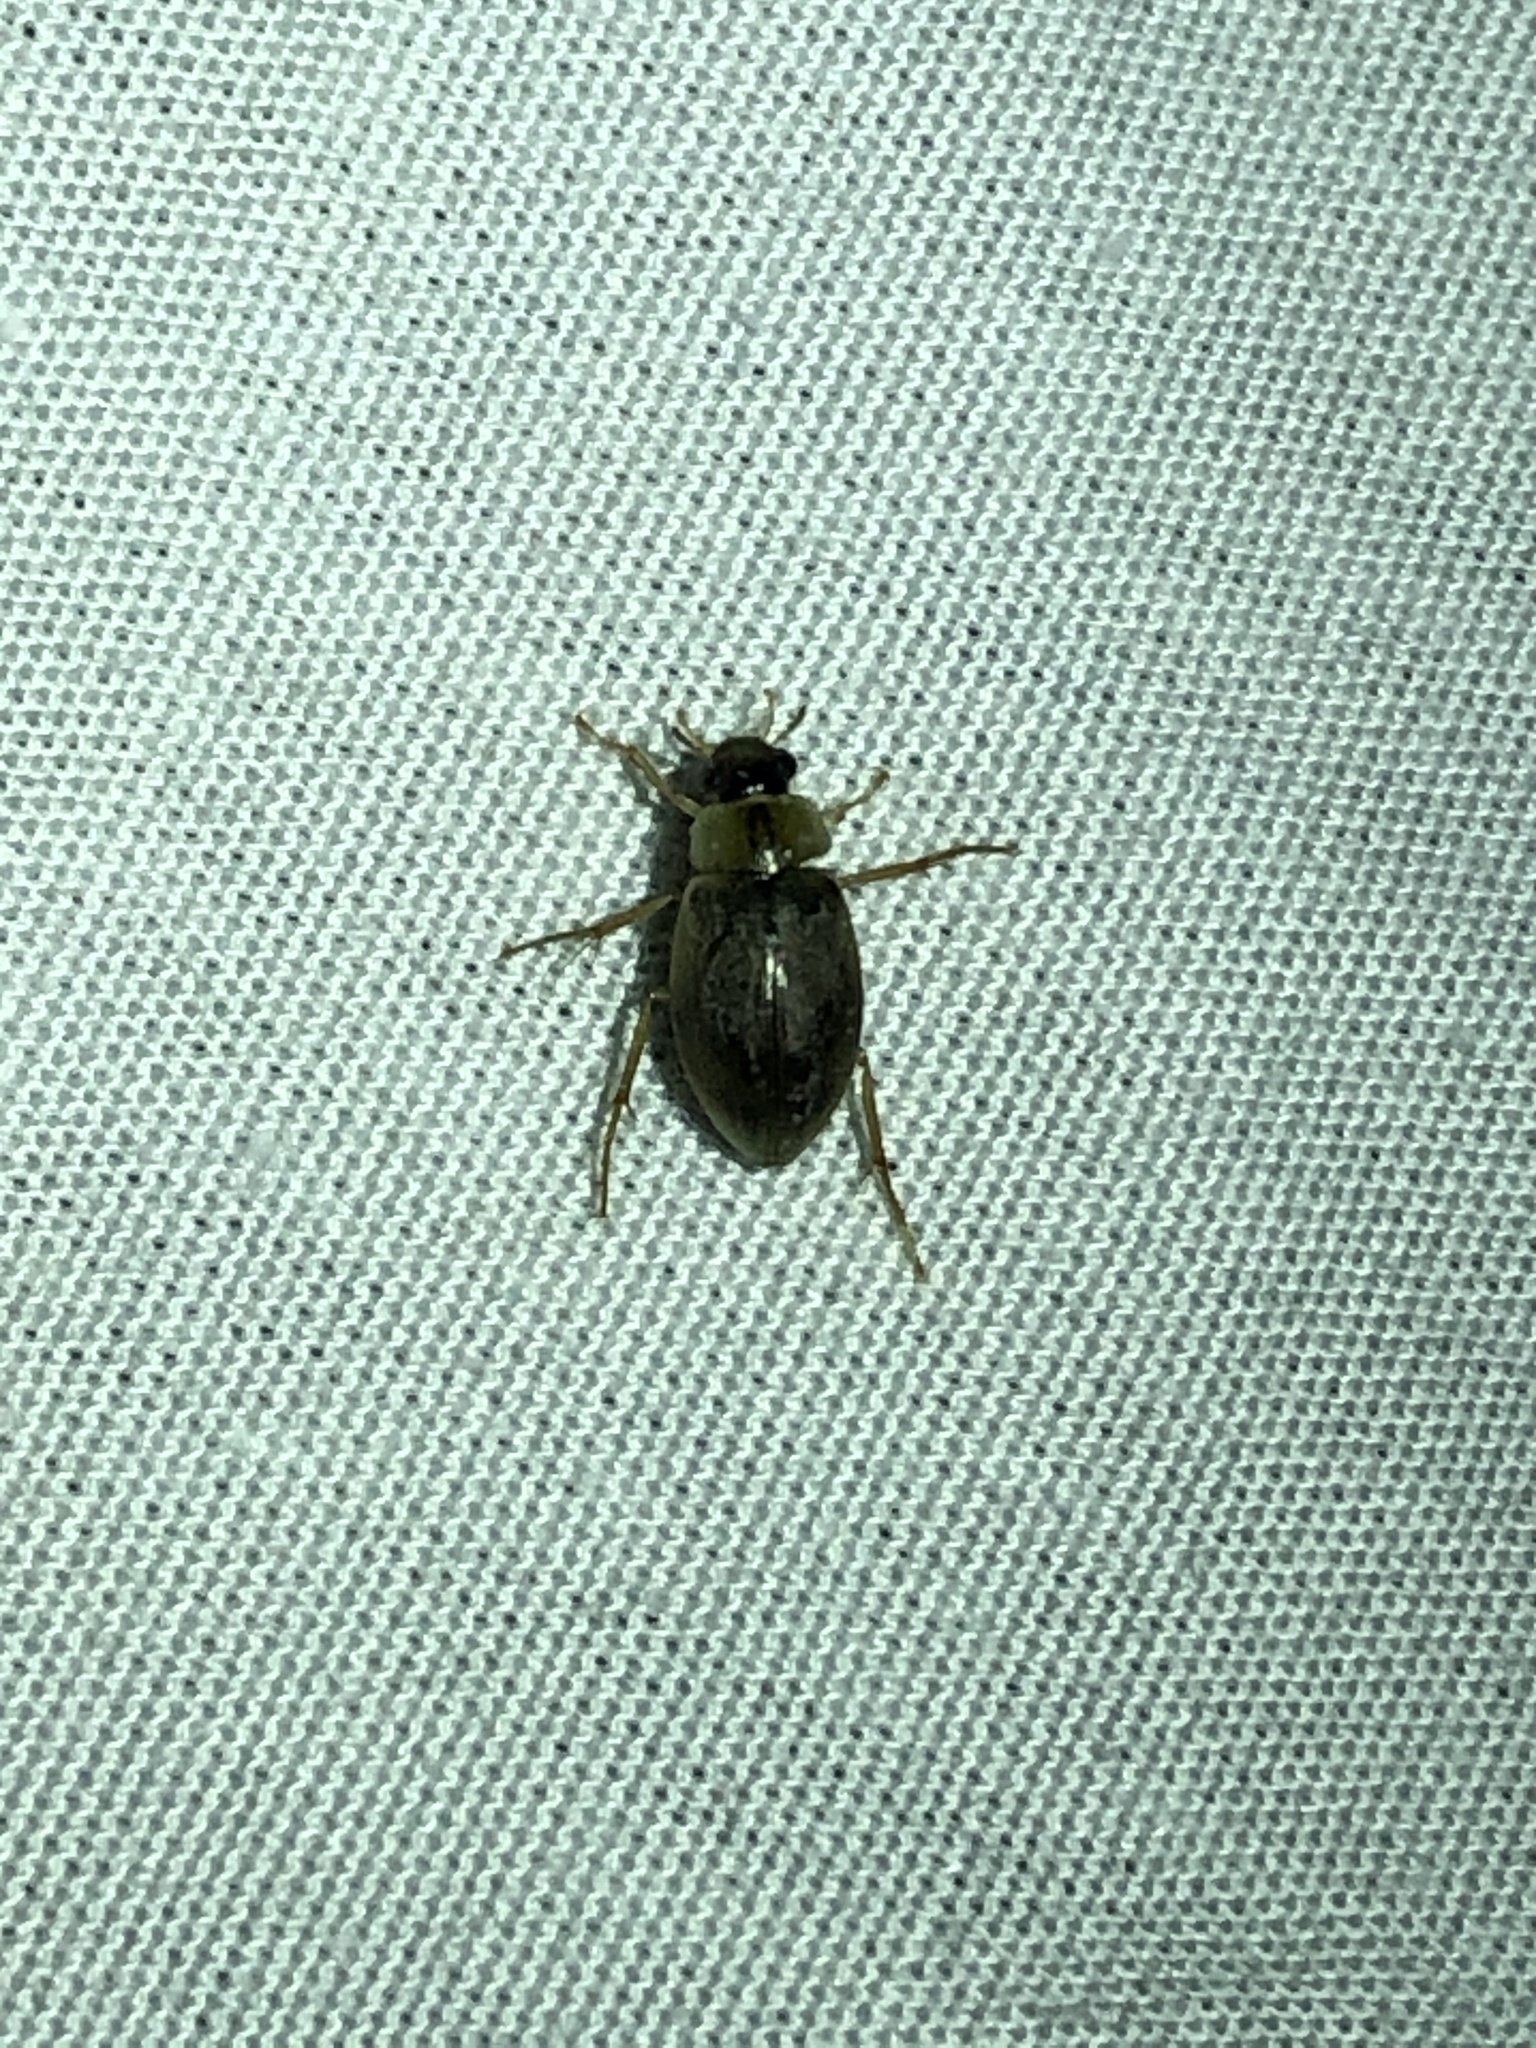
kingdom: Animalia
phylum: Arthropoda
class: Insecta
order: Coleoptera
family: Hydrophilidae
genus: Berosus
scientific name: Berosus
